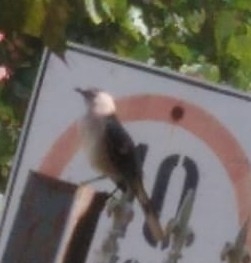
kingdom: Animalia
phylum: Chordata
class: Aves
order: Passeriformes
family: Mimidae
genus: Mimus
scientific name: Mimus gilvus
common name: Tropical mockingbird
